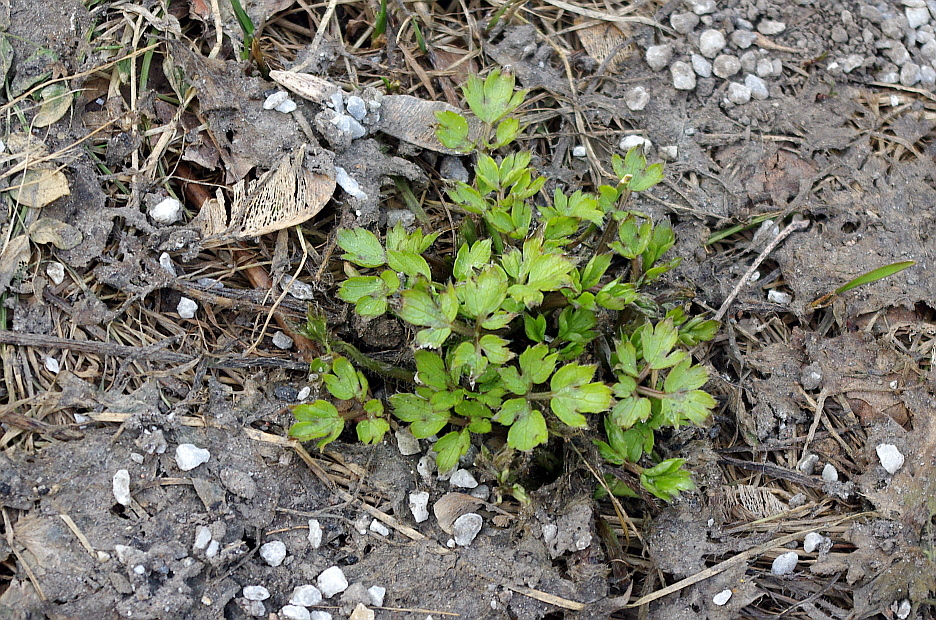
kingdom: Plantae
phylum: Tracheophyta
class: Magnoliopsida
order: Ranunculales
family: Ranunculaceae
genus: Ranunculus
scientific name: Ranunculus repens
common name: Creeping buttercup
